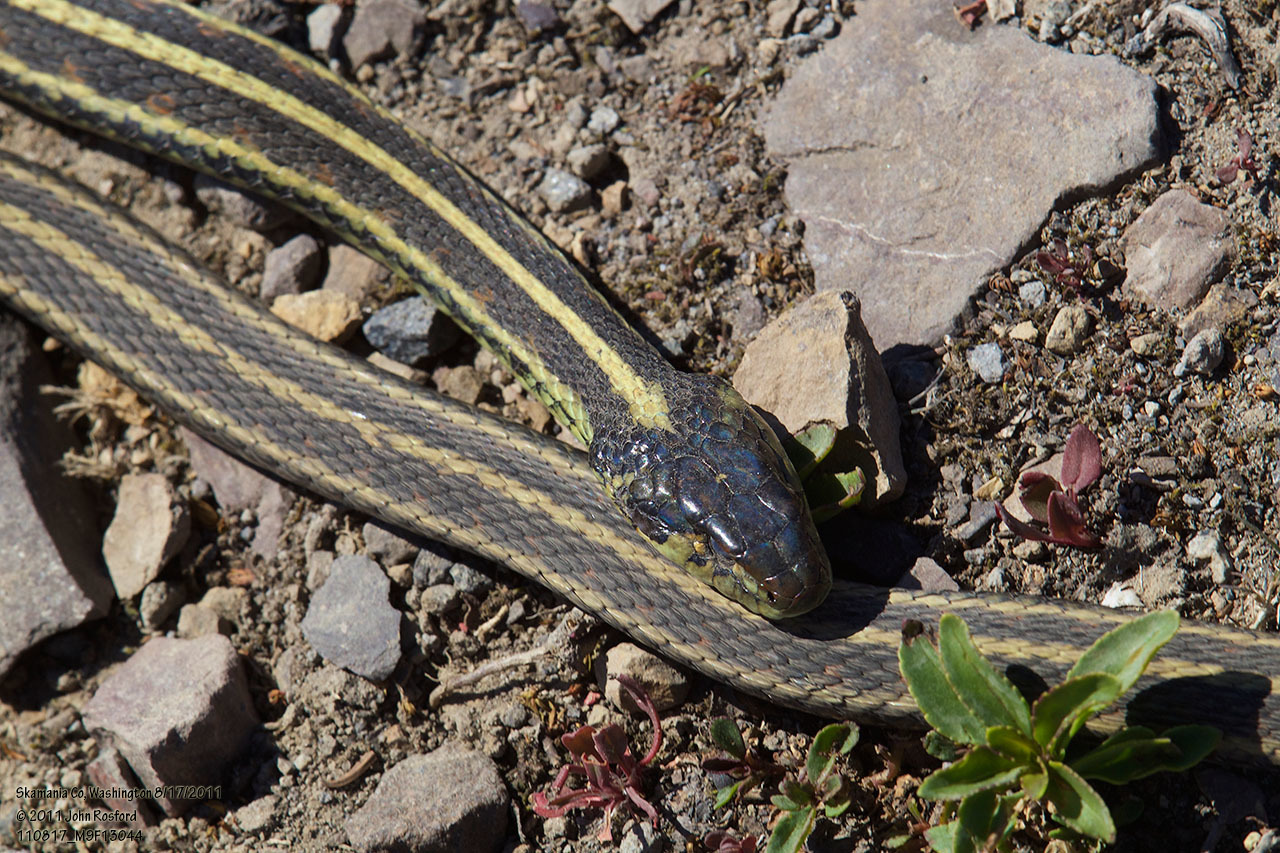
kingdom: Animalia
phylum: Chordata
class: Squamata
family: Colubridae
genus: Thamnophis
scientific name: Thamnophis sirtalis
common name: Common garter snake
